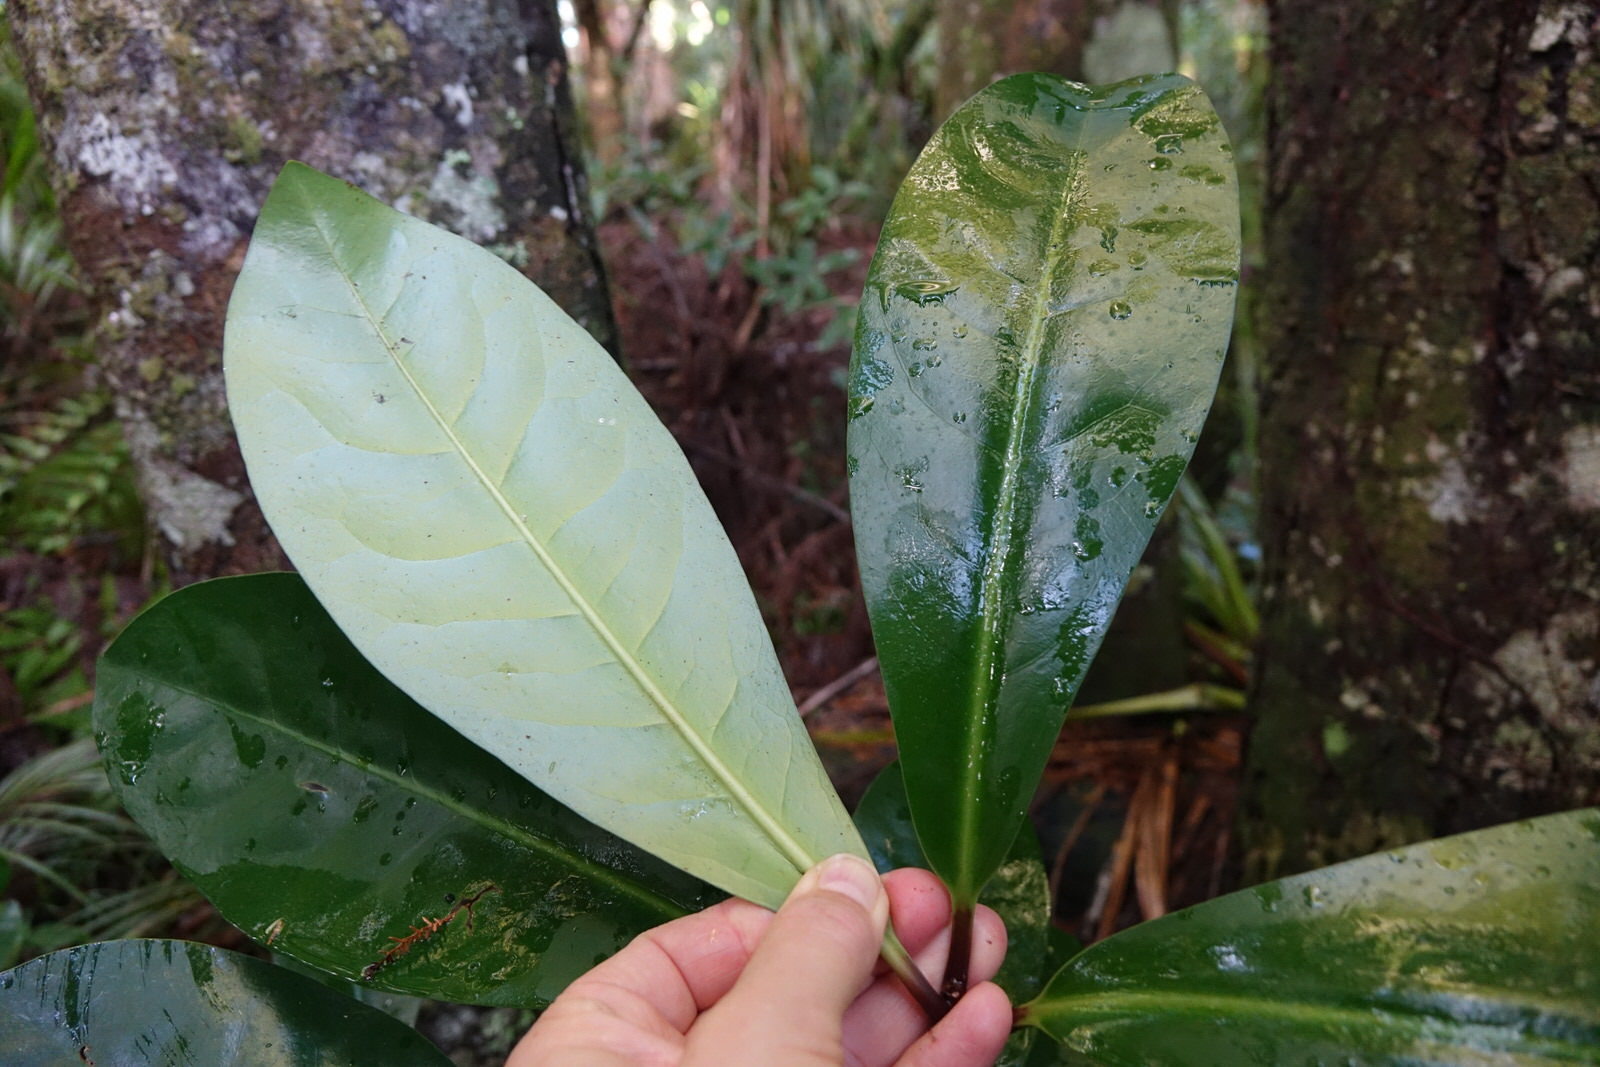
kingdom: Plantae
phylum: Tracheophyta
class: Magnoliopsida
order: Cucurbitales
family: Corynocarpaceae
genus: Corynocarpus
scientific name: Corynocarpus laevigatus
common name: New zealand laurel
